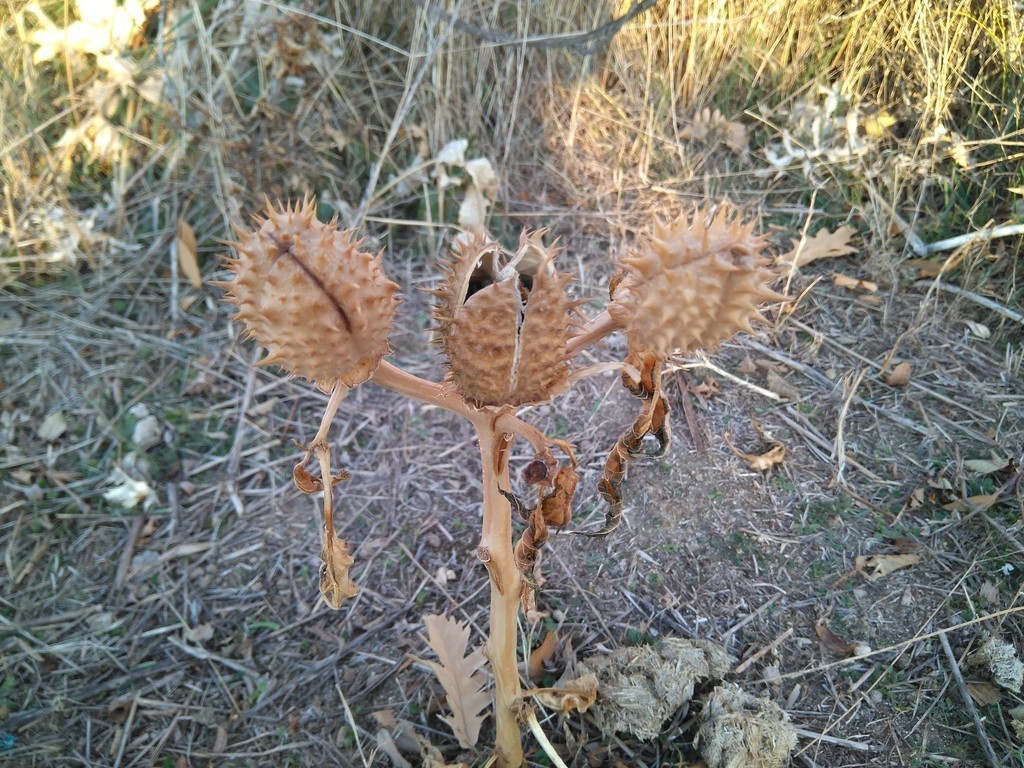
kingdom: Plantae
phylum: Tracheophyta
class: Magnoliopsida
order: Solanales
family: Solanaceae
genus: Datura
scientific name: Datura stramonium
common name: Thorn-apple
